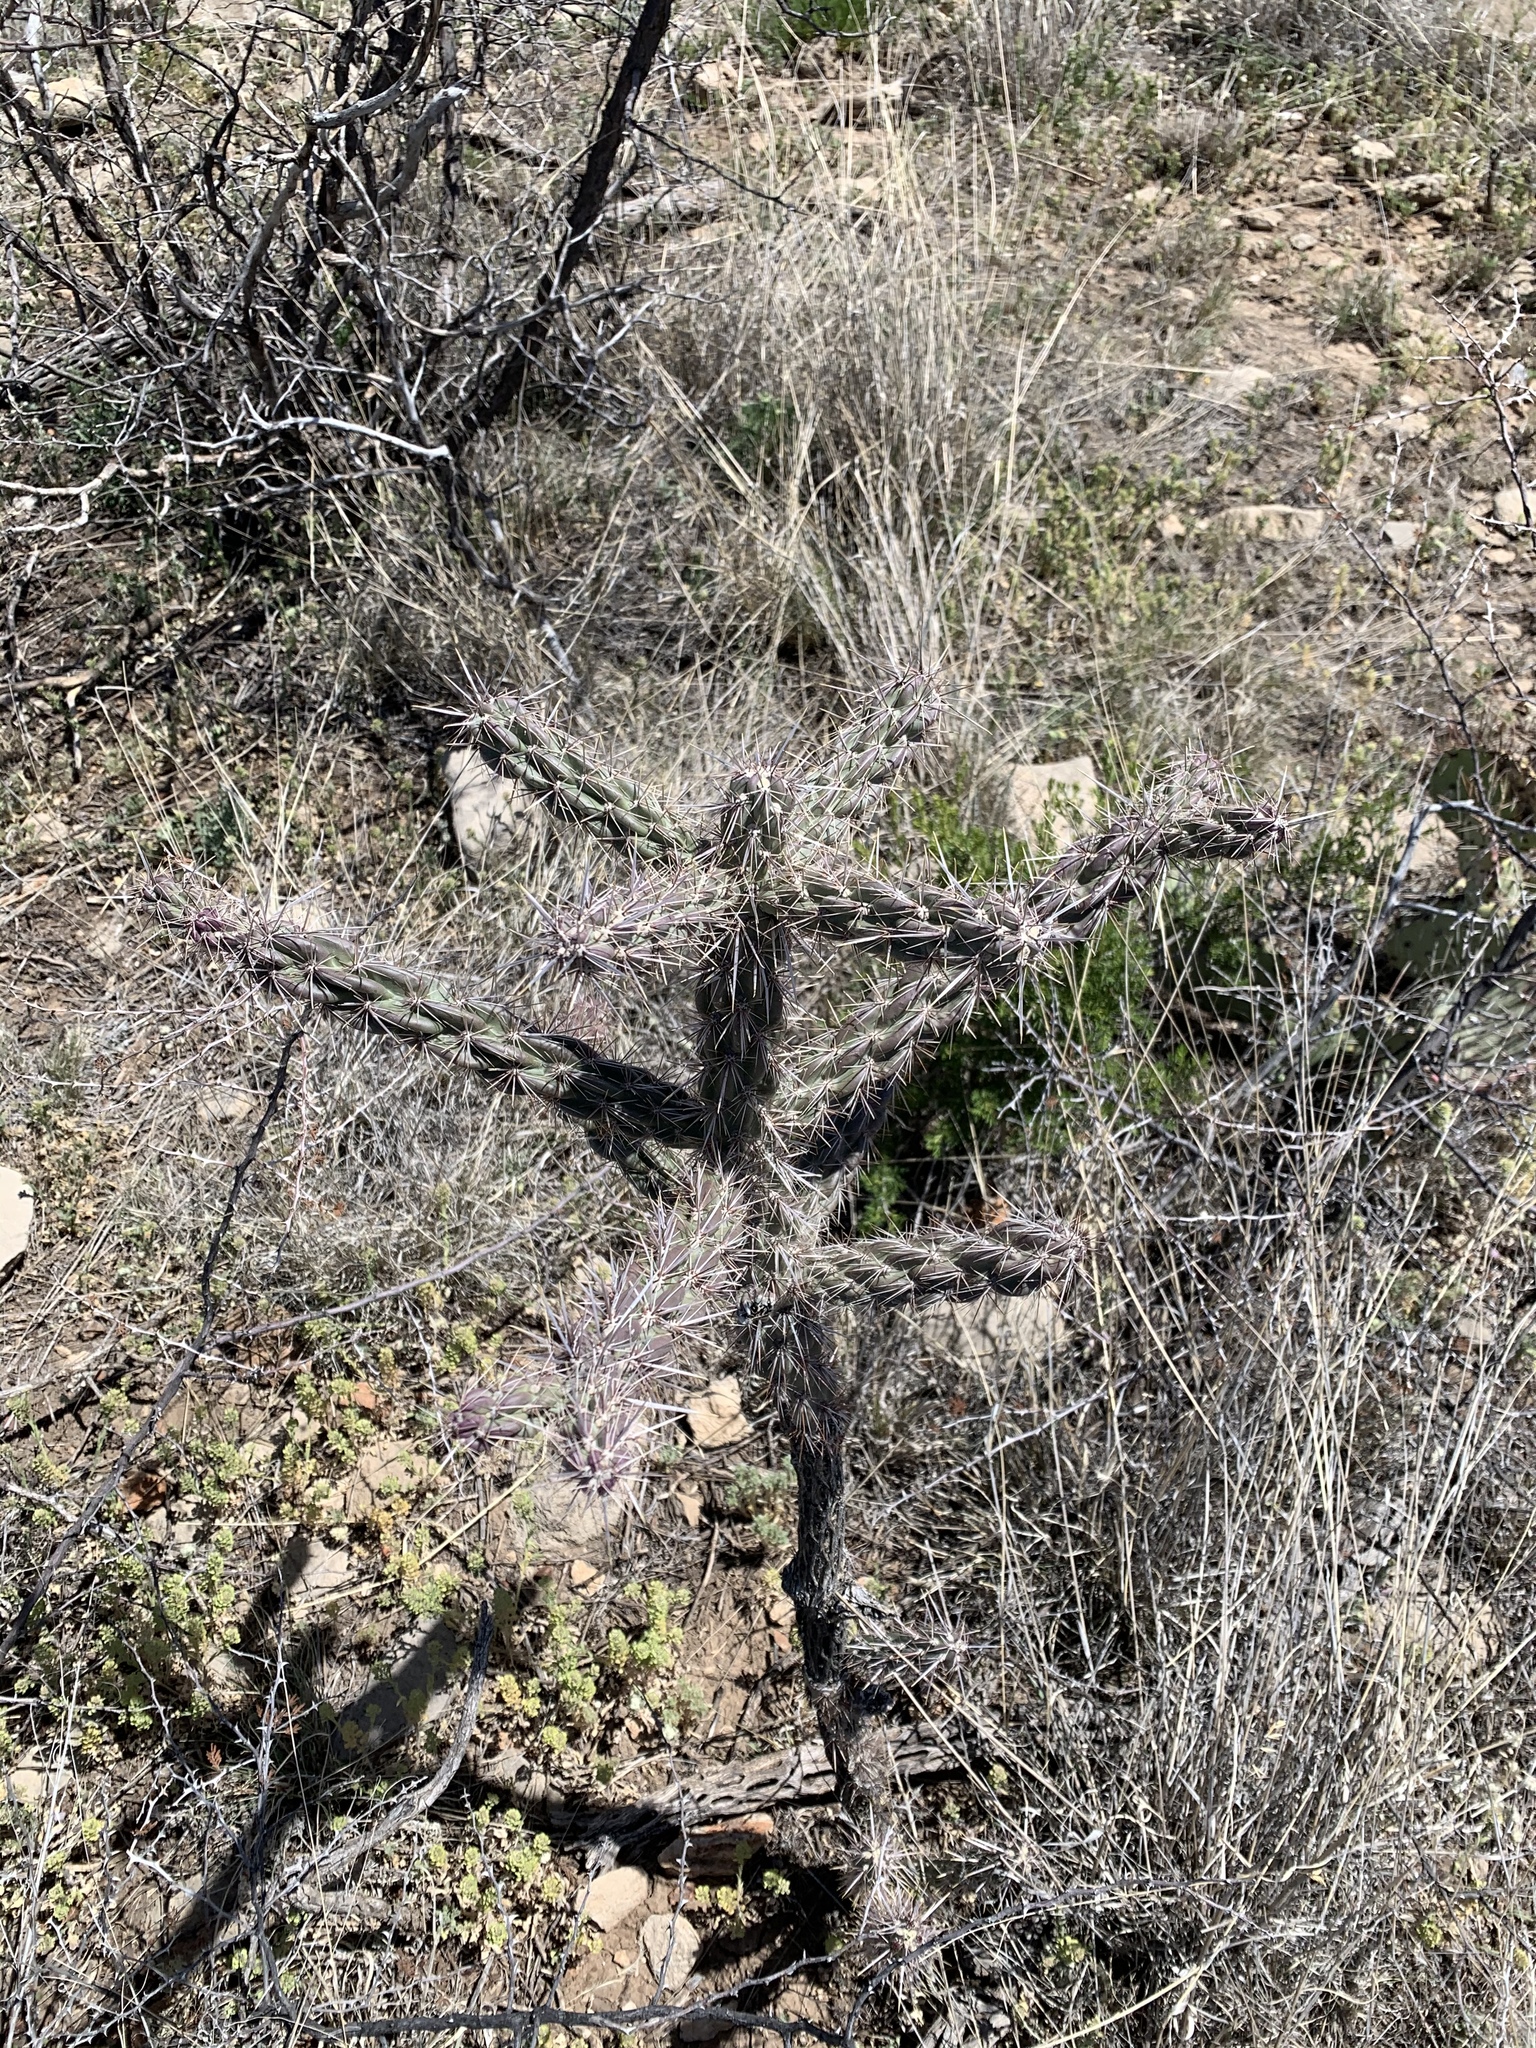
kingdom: Plantae
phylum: Tracheophyta
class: Magnoliopsida
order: Caryophyllales
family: Cactaceae
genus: Cylindropuntia
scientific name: Cylindropuntia imbricata
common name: Candelabrum cactus
